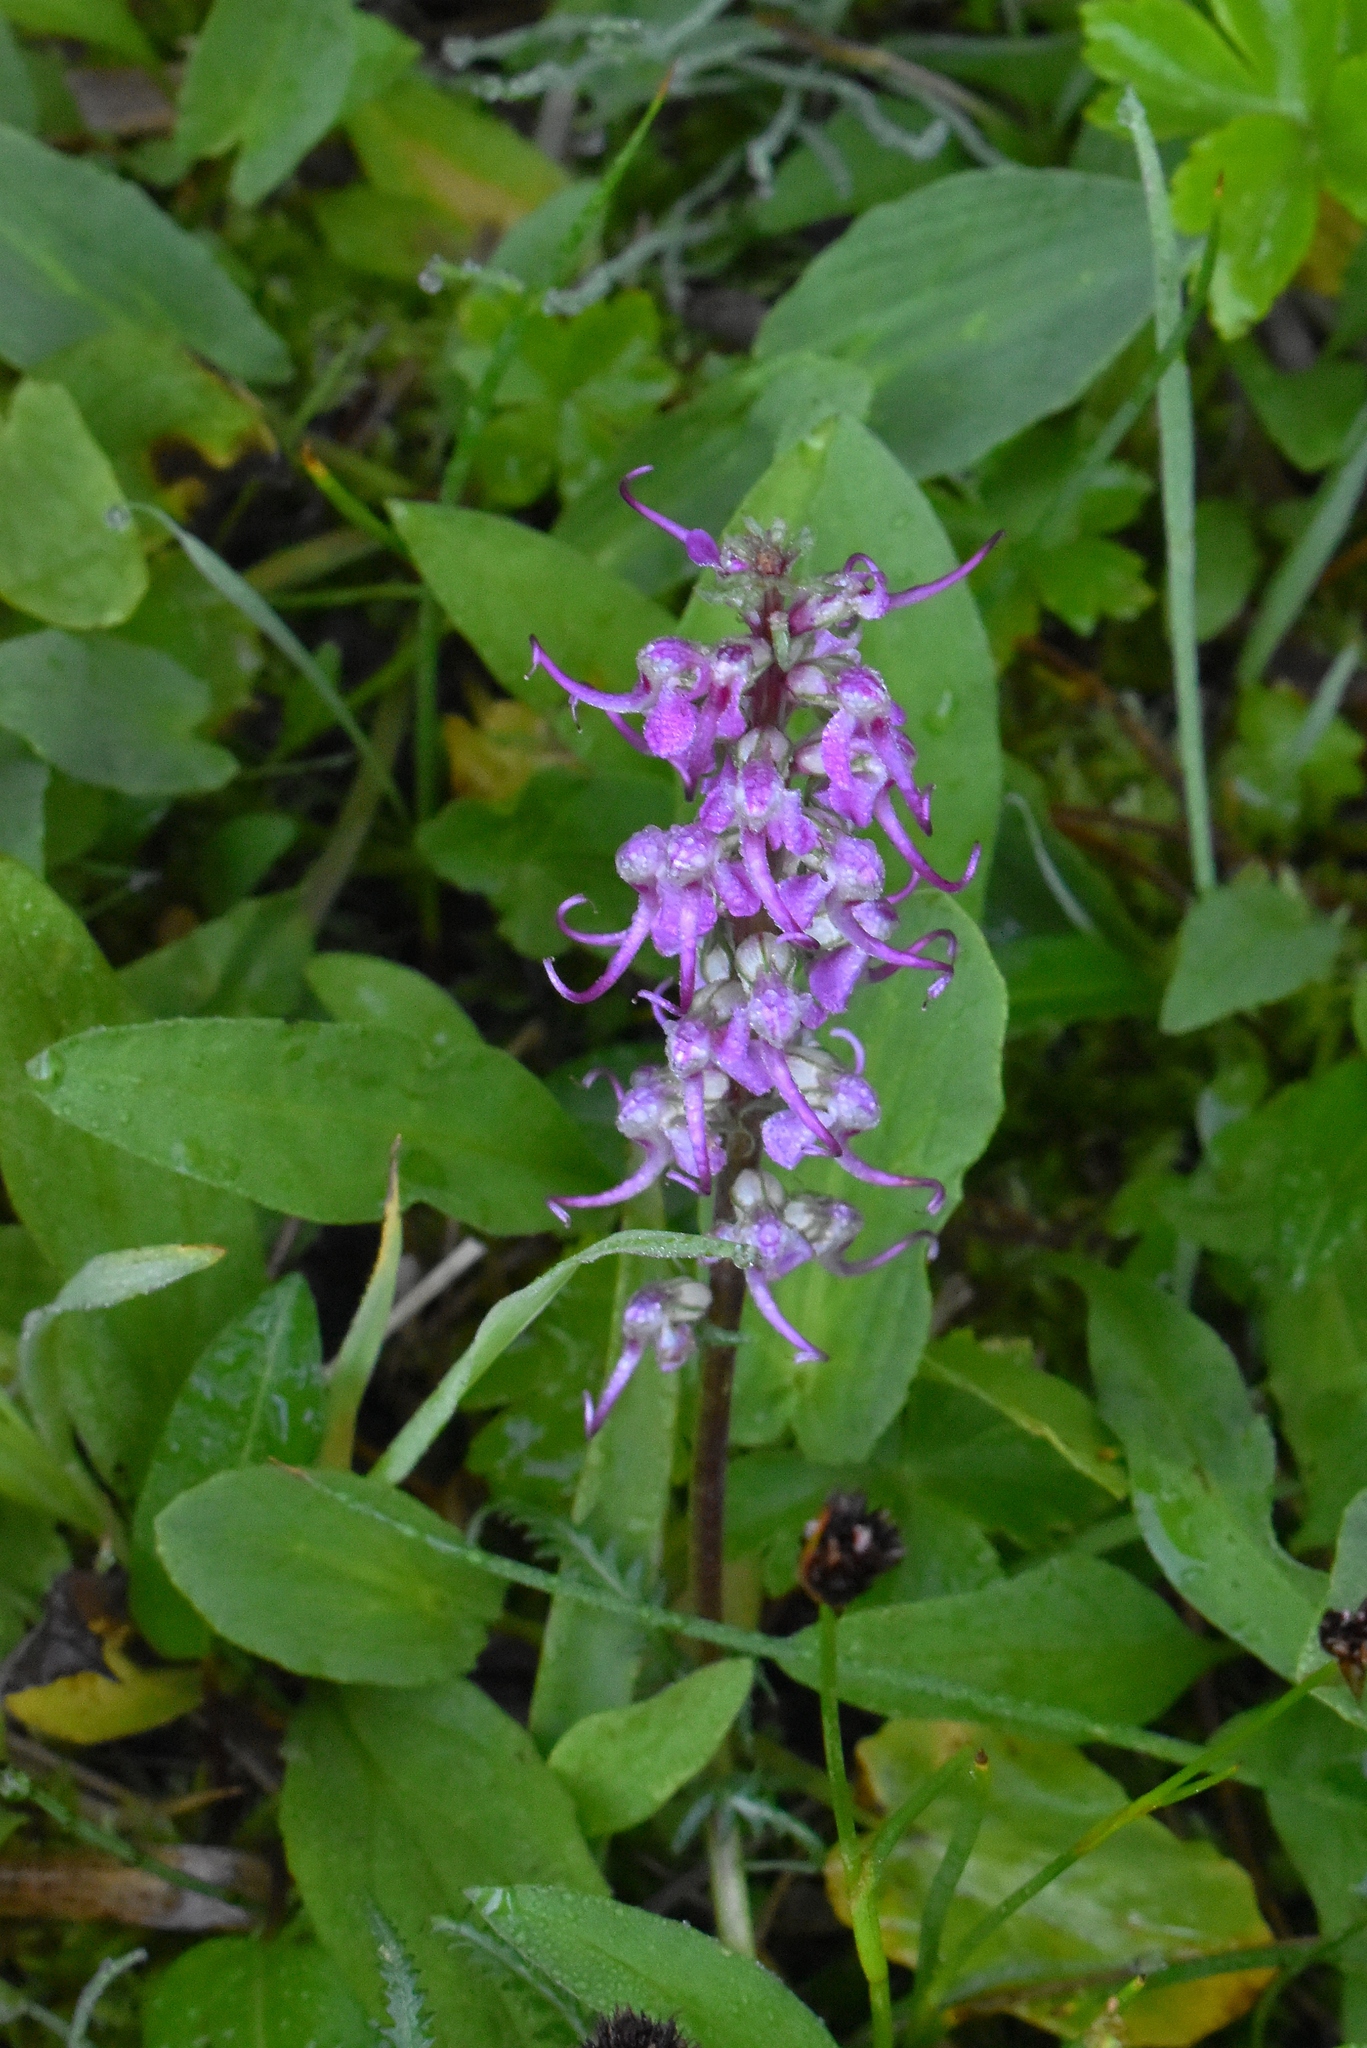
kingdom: Plantae
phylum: Tracheophyta
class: Magnoliopsida
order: Lamiales
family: Orobanchaceae
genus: Pedicularis
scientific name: Pedicularis groenlandica
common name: Elephant's-head
